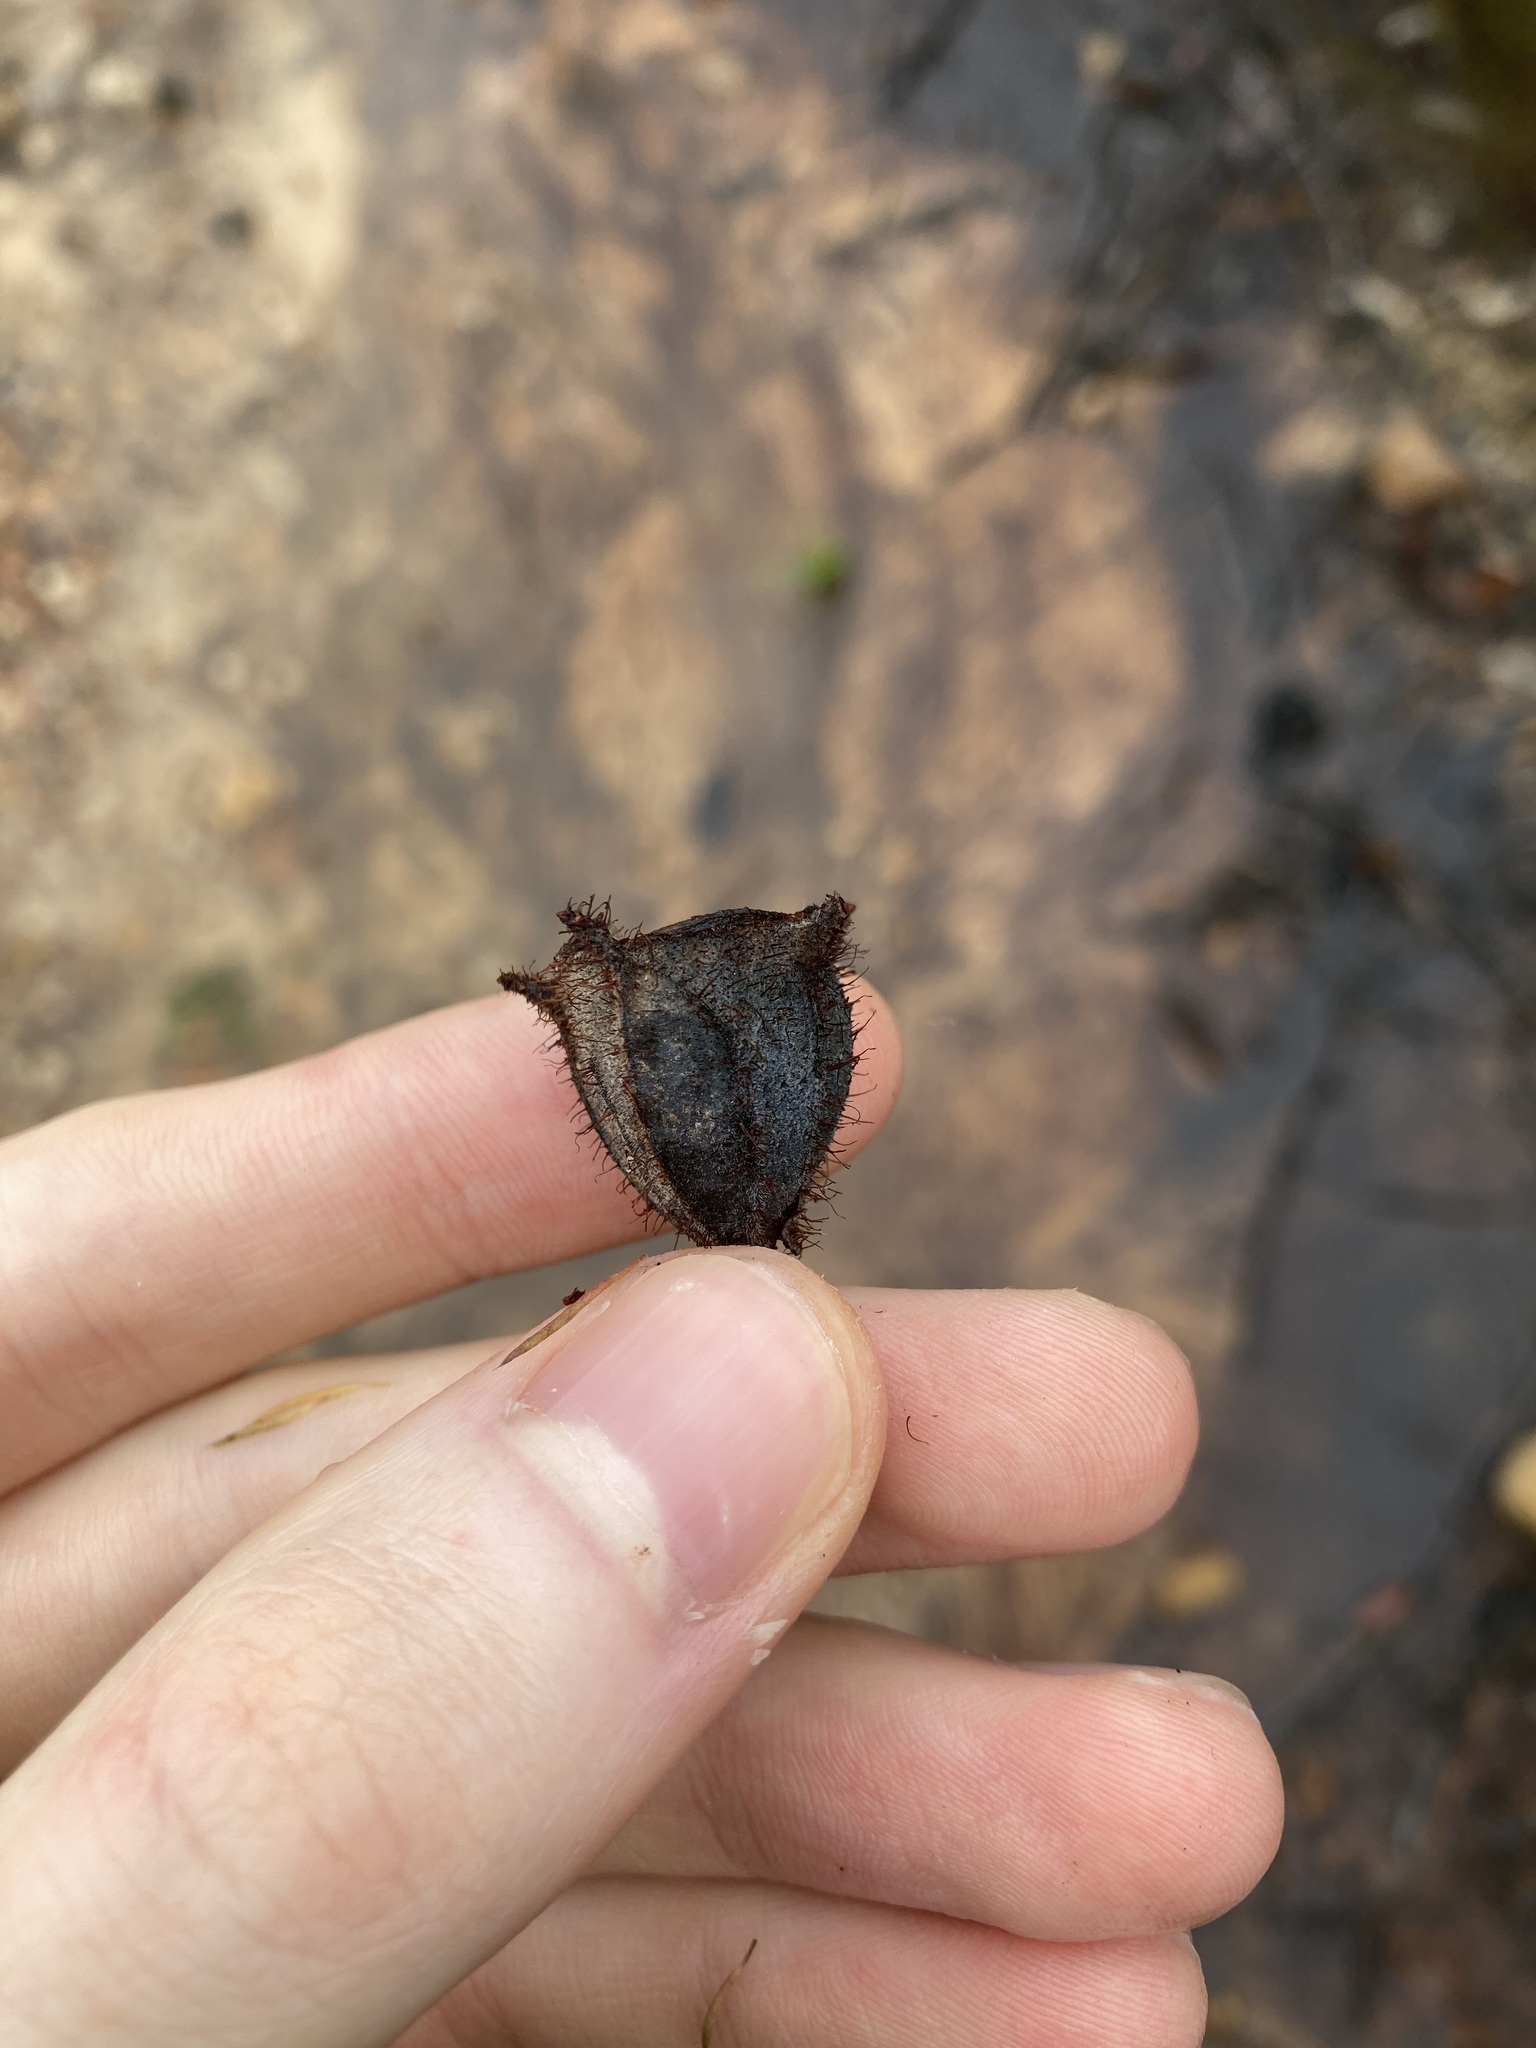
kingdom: Plantae
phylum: Tracheophyta
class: Magnoliopsida
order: Myrtales
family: Myrtaceae
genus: Angophora
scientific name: Angophora hispida
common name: Dwarf-apple
